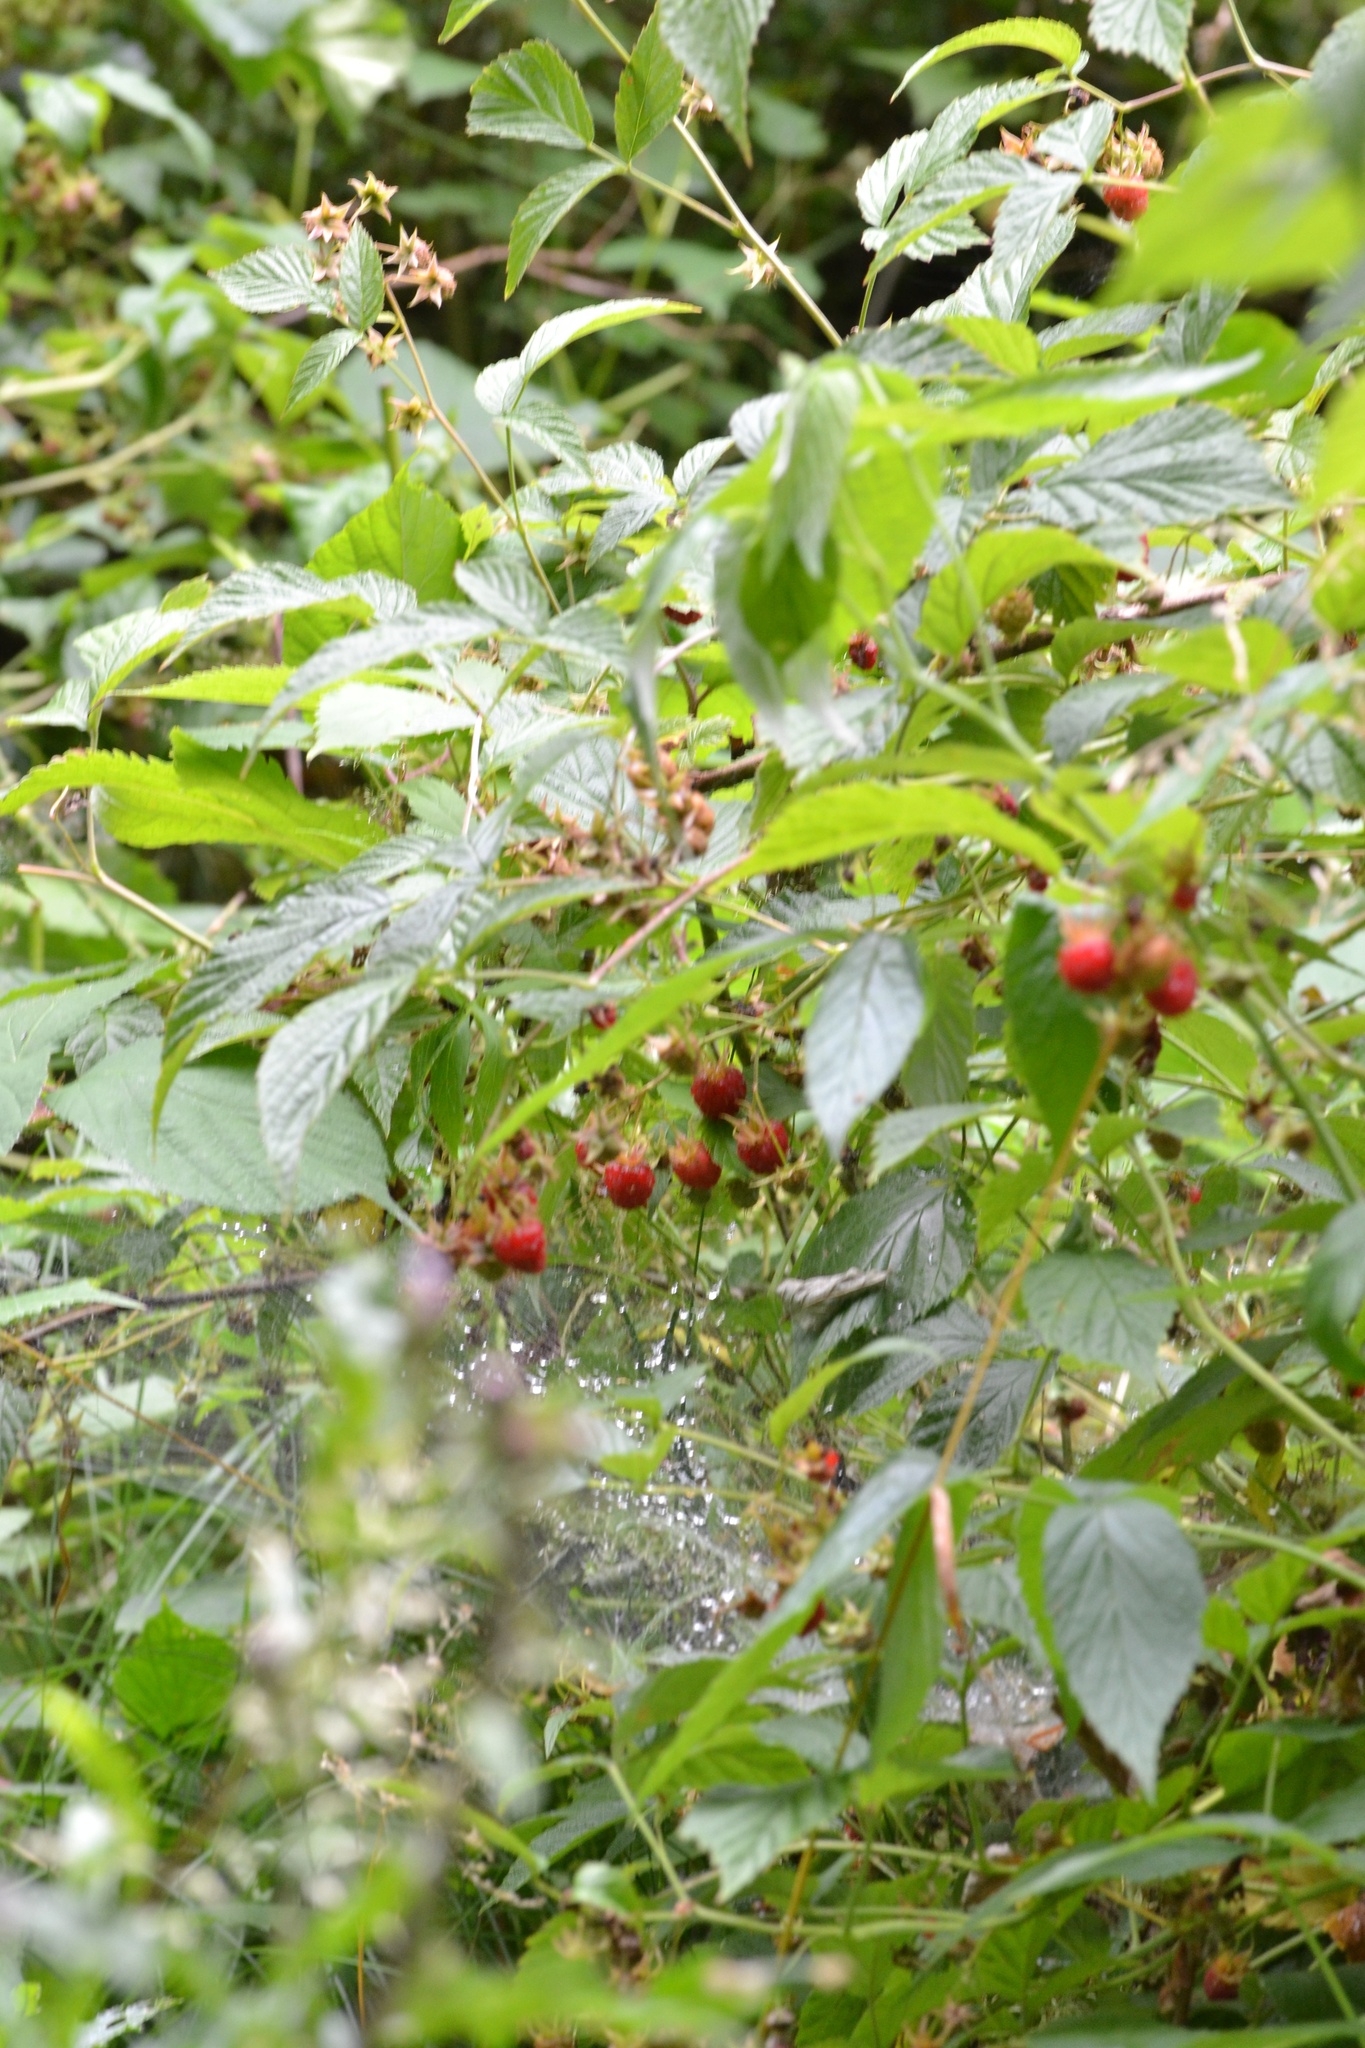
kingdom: Plantae
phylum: Tracheophyta
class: Magnoliopsida
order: Rosales
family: Rosaceae
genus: Rubus
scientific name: Rubus idaeus
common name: Raspberry
